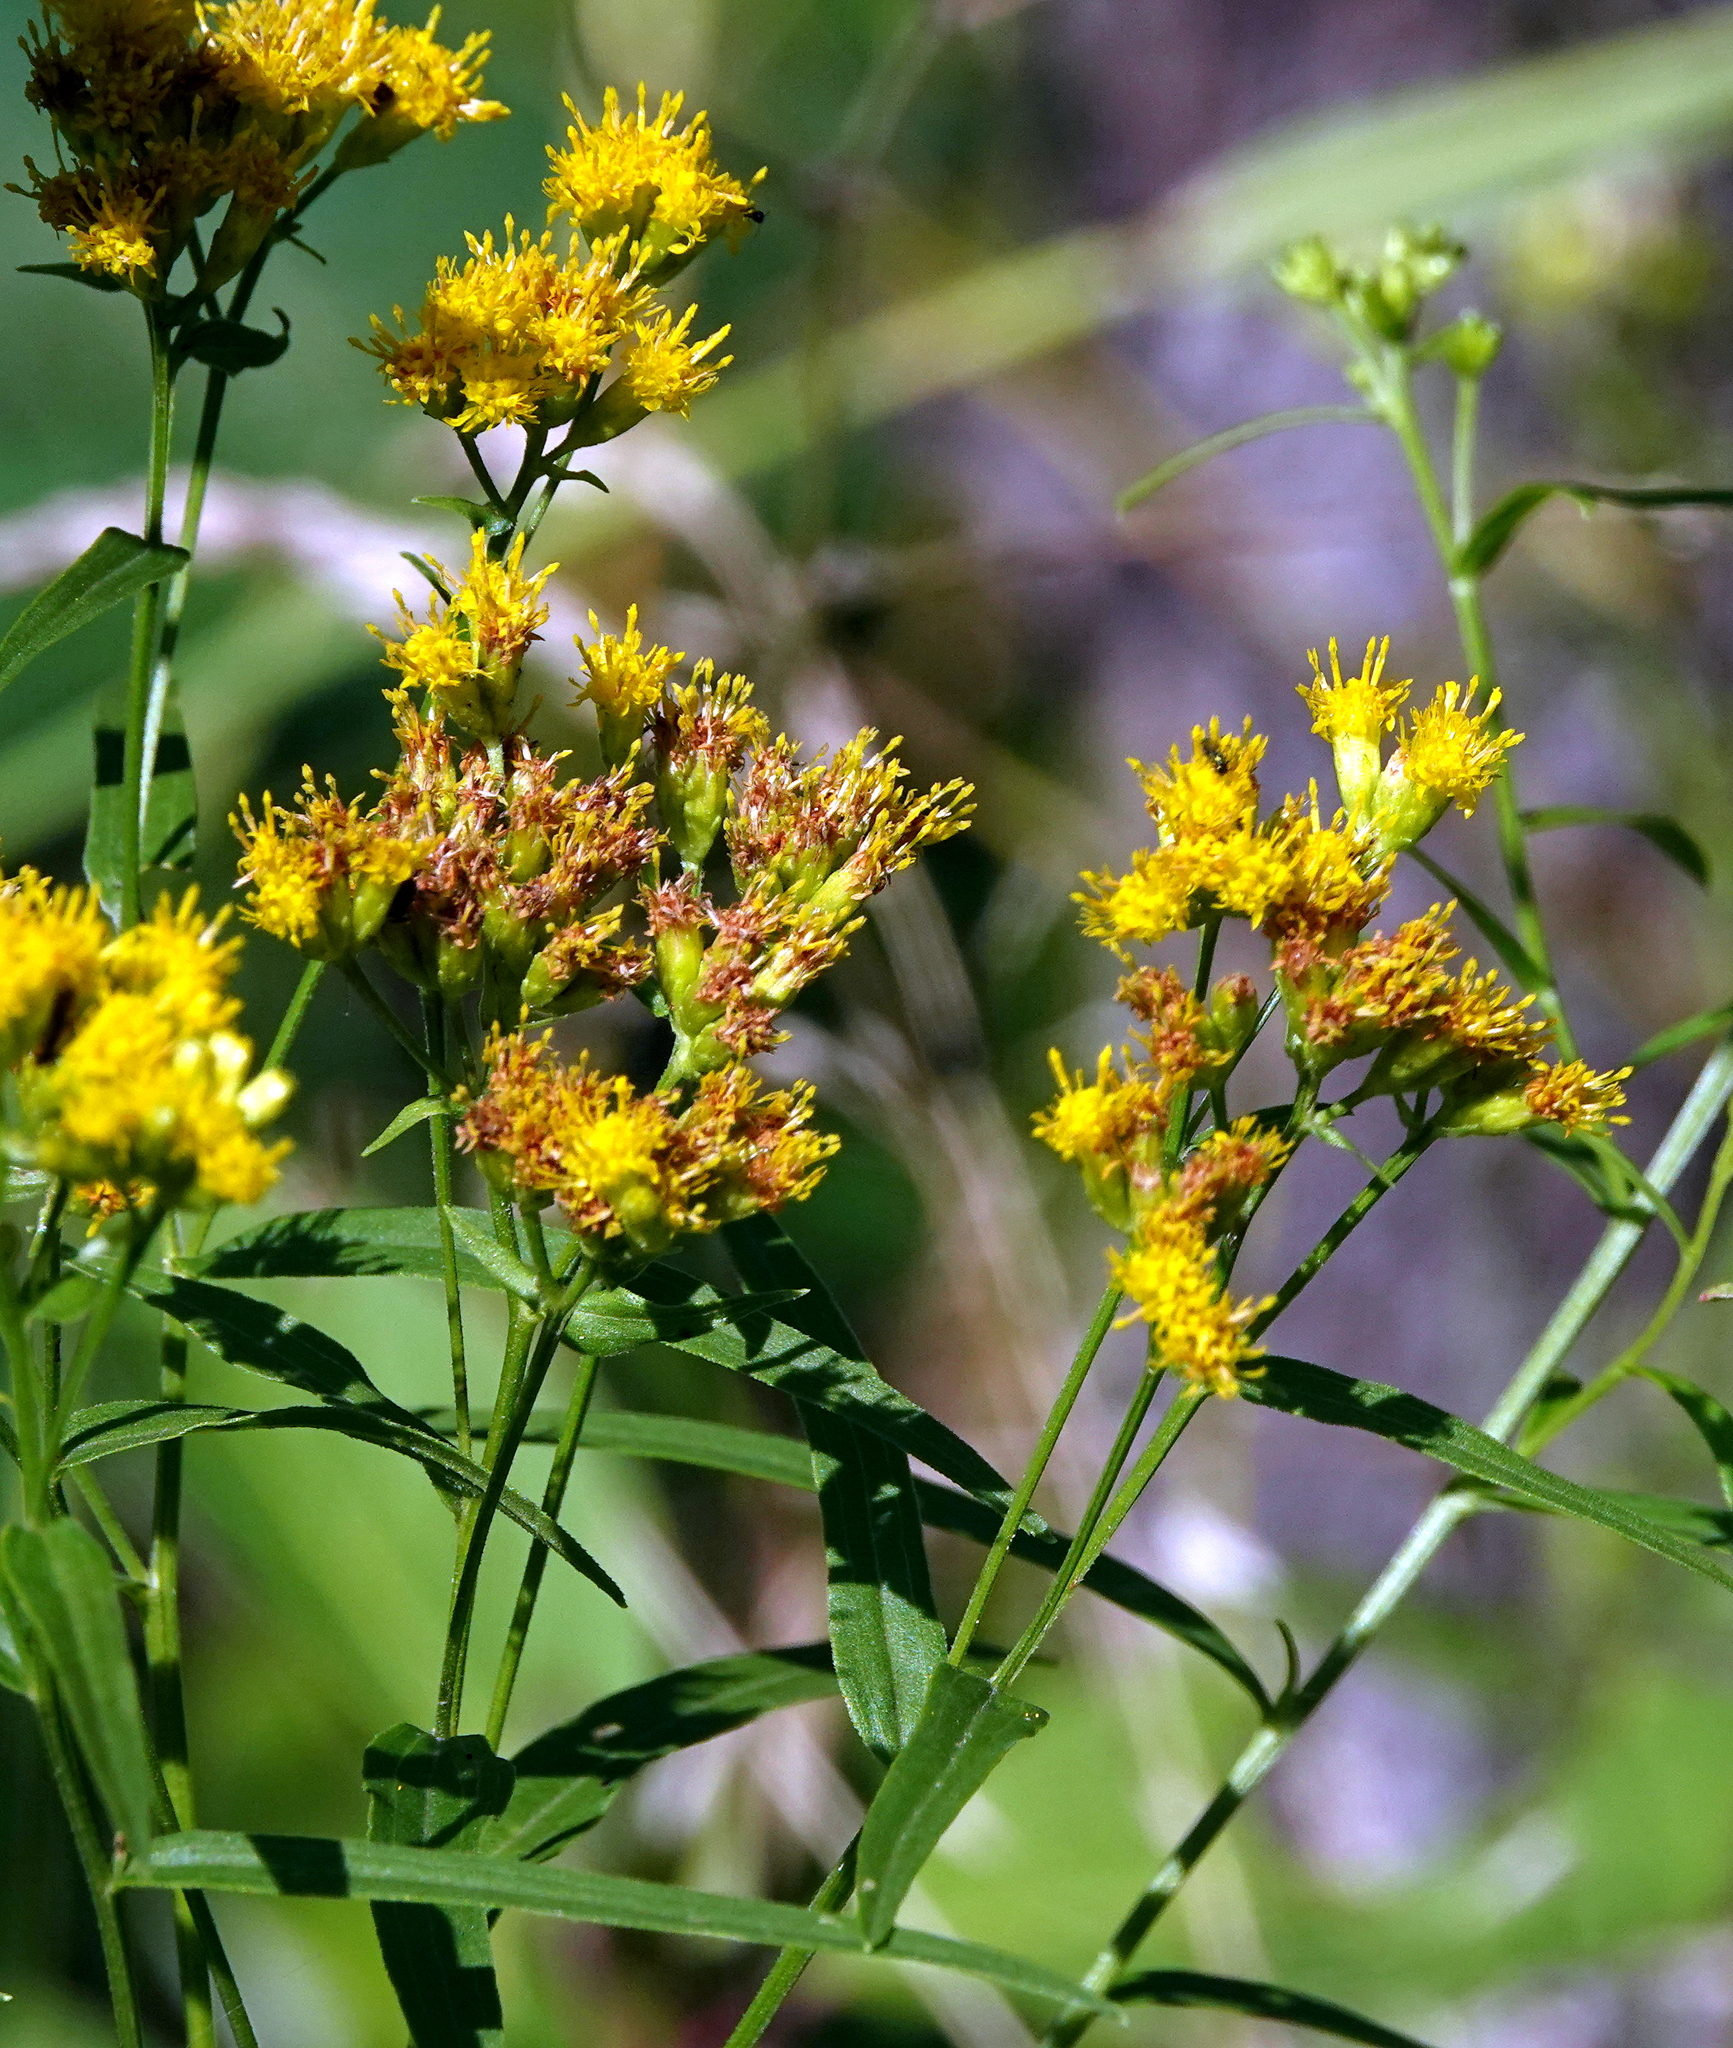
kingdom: Plantae
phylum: Tracheophyta
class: Magnoliopsida
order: Asterales
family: Asteraceae
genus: Euthamia
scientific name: Euthamia graminifolia
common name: Common goldentop
